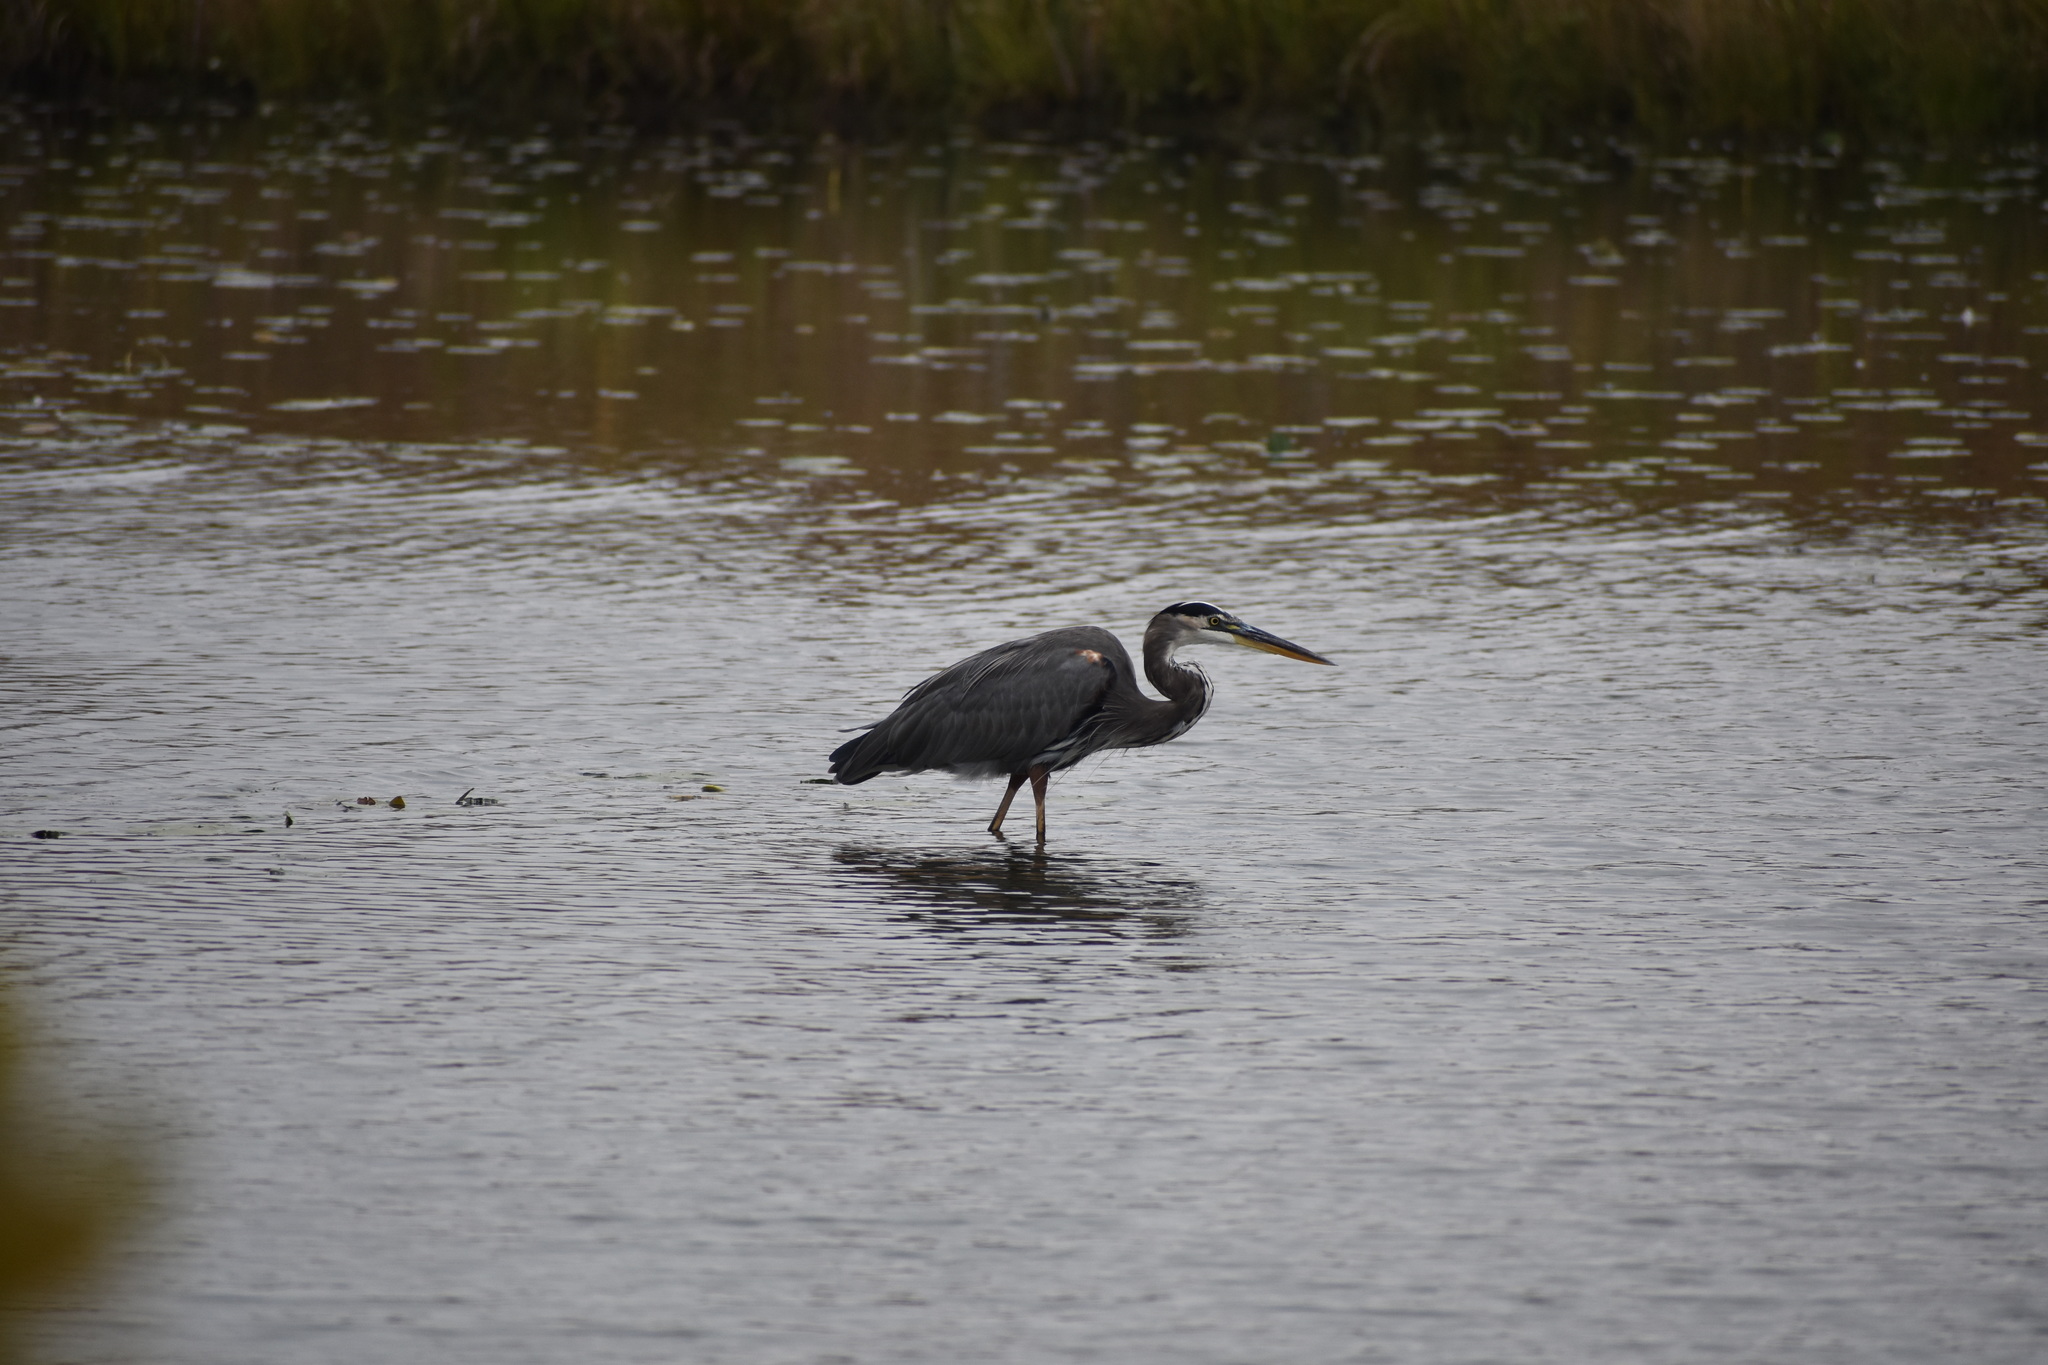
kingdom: Animalia
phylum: Chordata
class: Aves
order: Pelecaniformes
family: Ardeidae
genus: Ardea
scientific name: Ardea herodias
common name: Great blue heron
